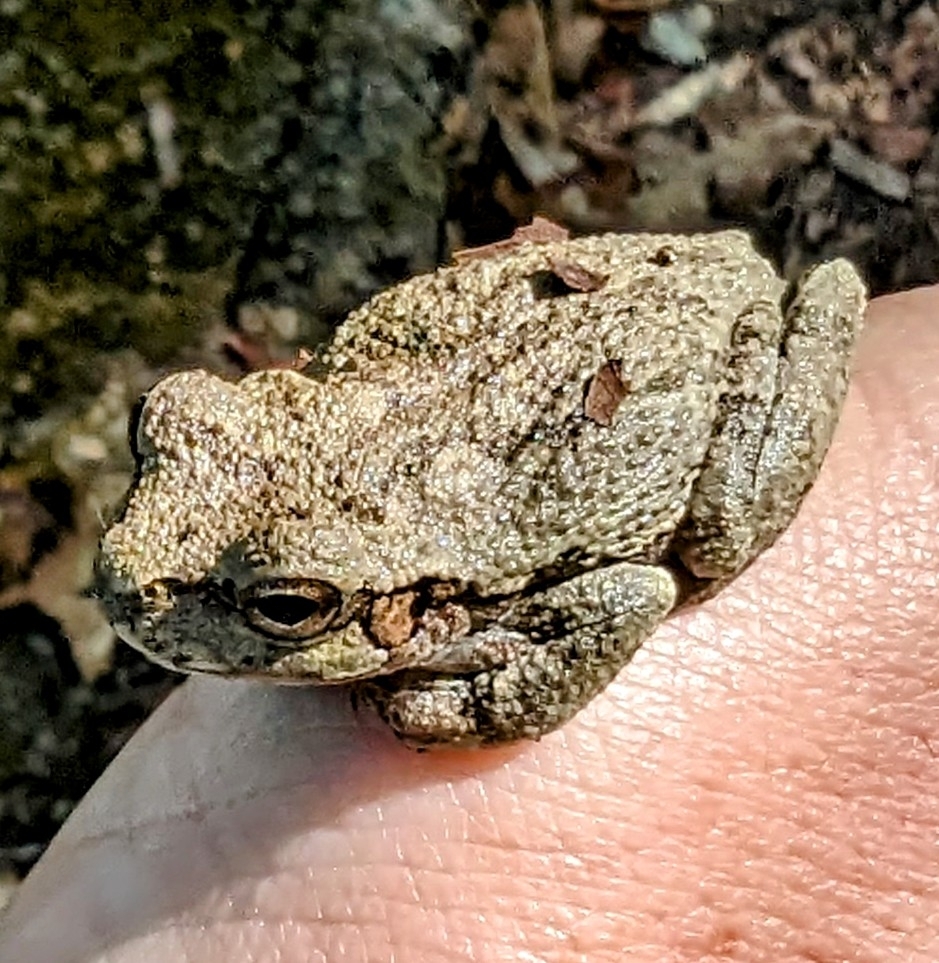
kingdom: Animalia
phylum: Chordata
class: Amphibia
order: Anura
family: Hylidae
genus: Hyla
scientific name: Hyla
